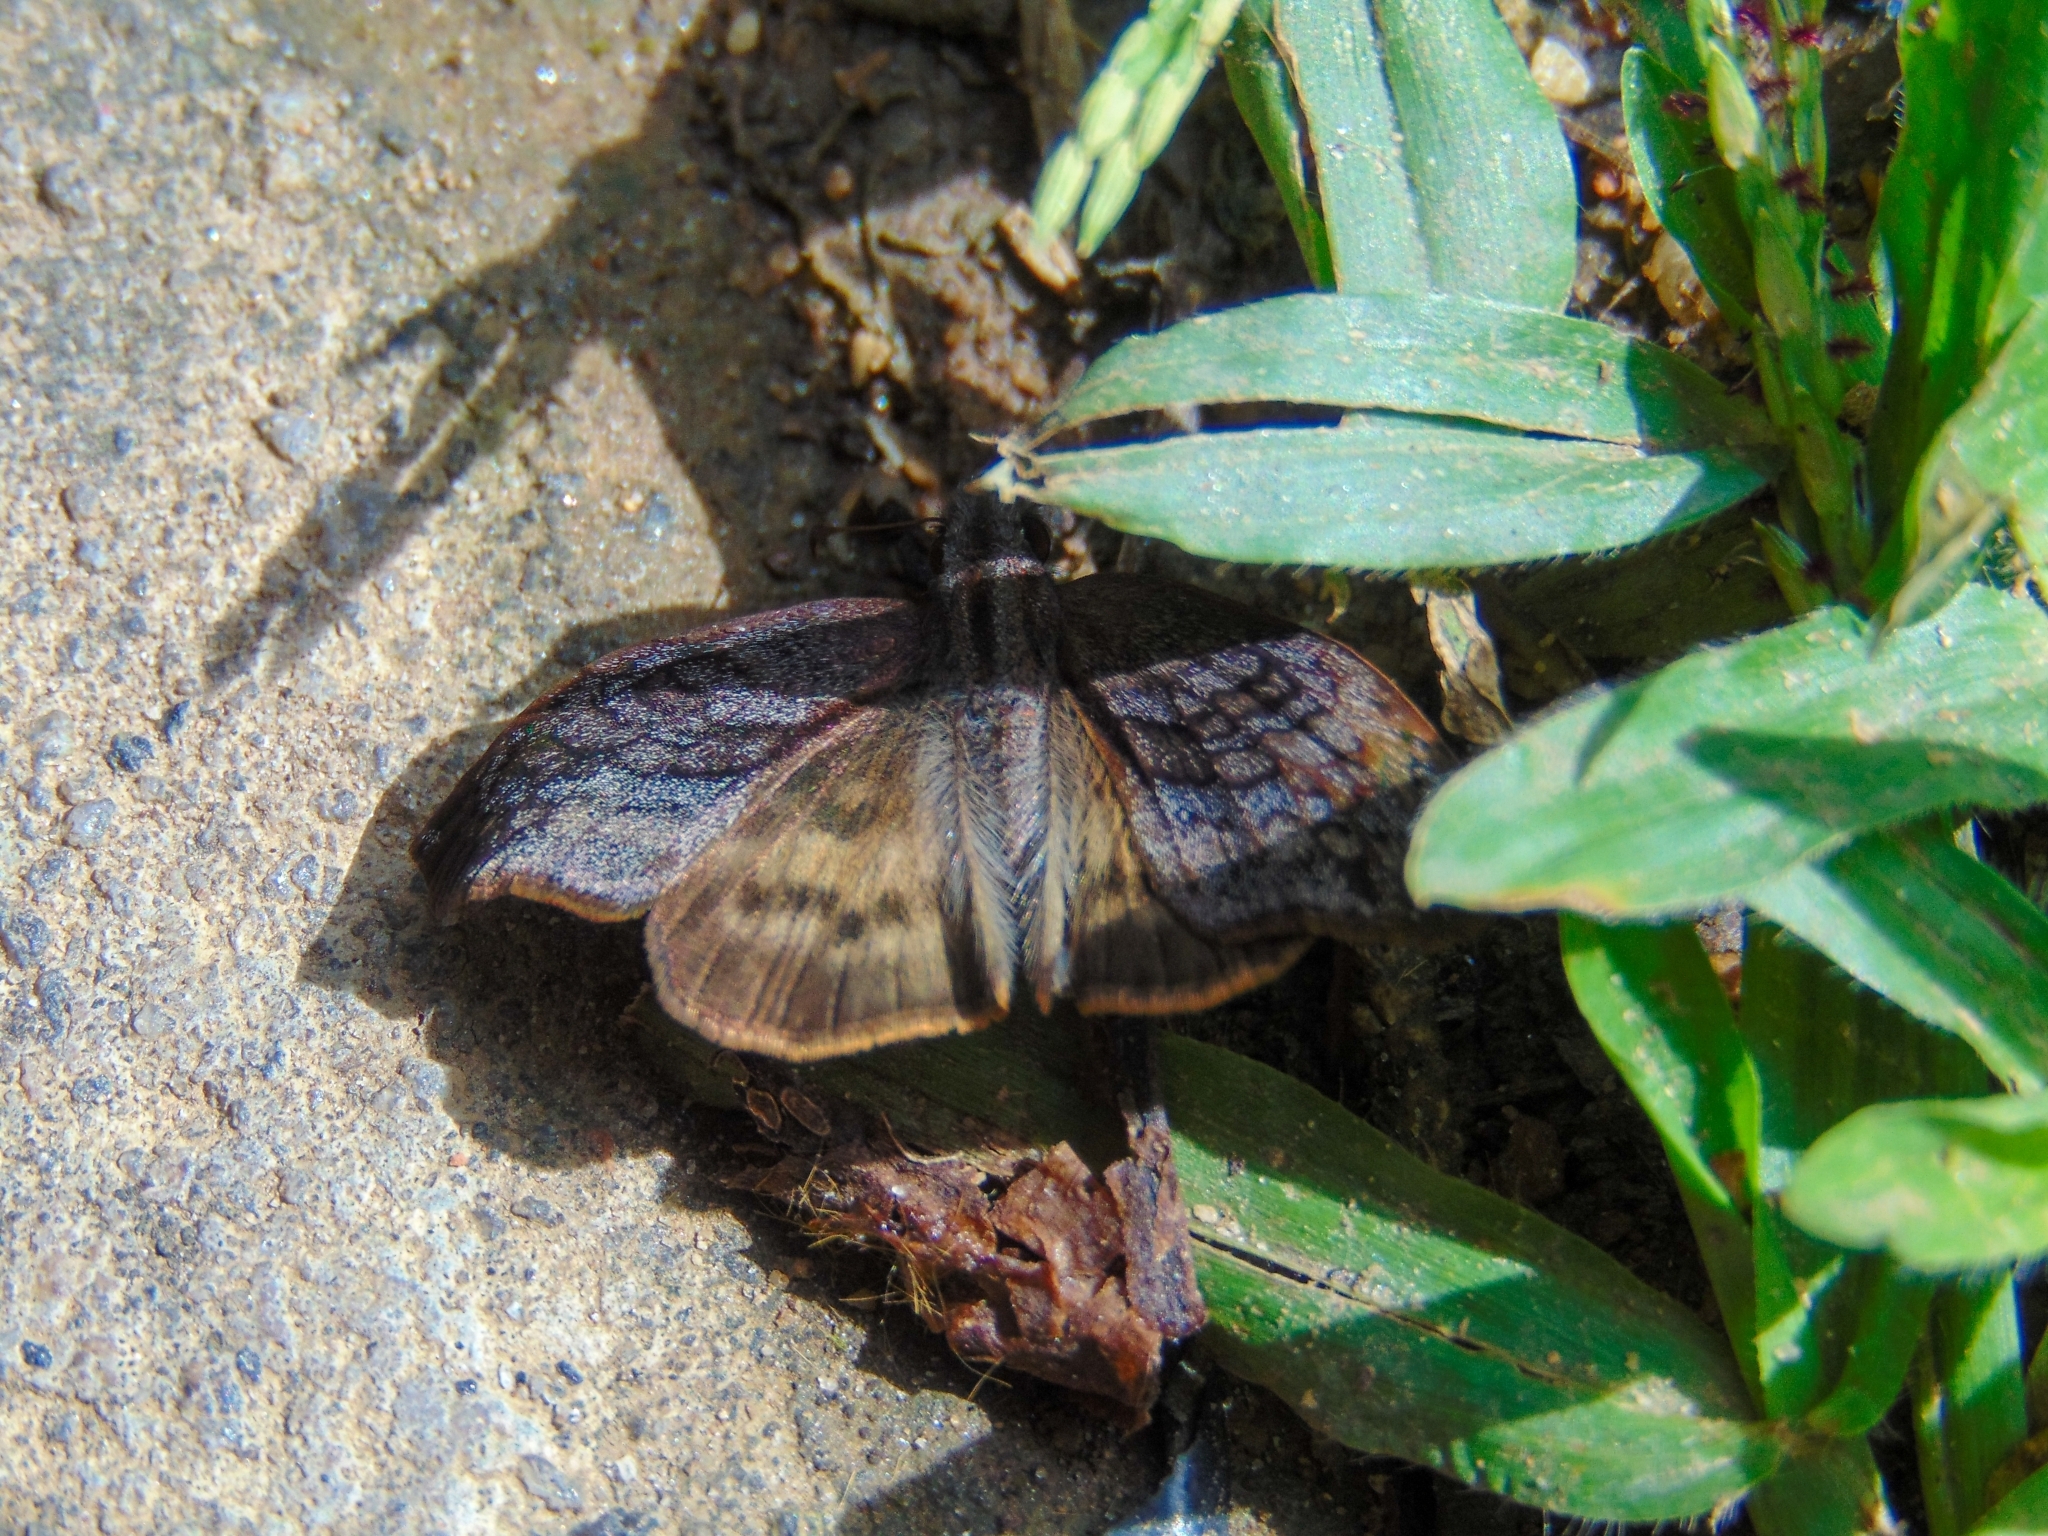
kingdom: Animalia
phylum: Arthropoda
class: Insecta
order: Lepidoptera
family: Hesperiidae
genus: Theagenes
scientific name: Theagenes dichrous
